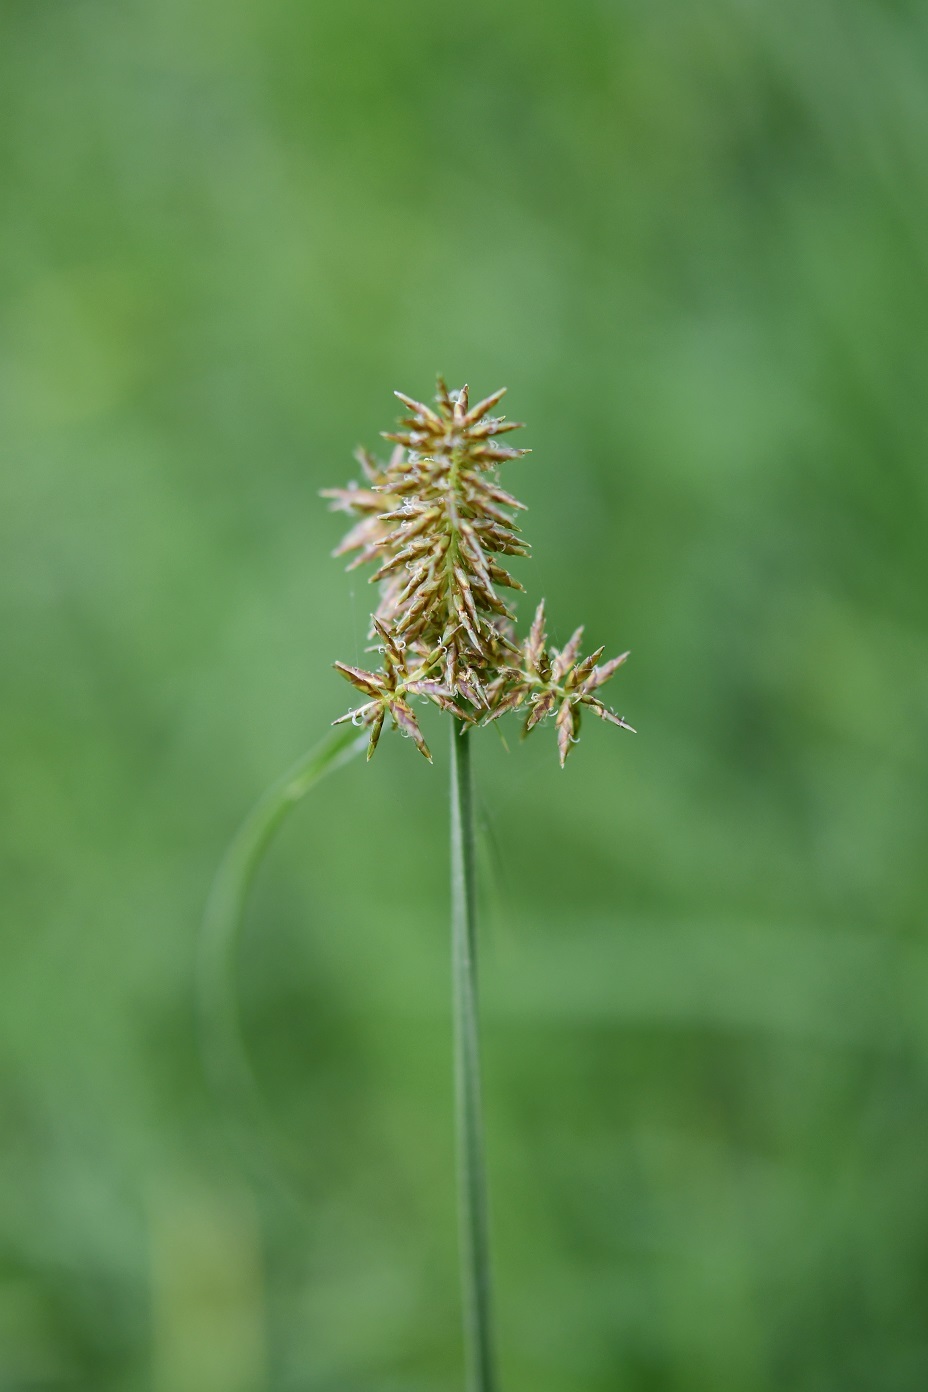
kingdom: Plantae
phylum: Tracheophyta
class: Liliopsida
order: Poales
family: Cyperaceae
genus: Cyperus
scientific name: Cyperus manimae
